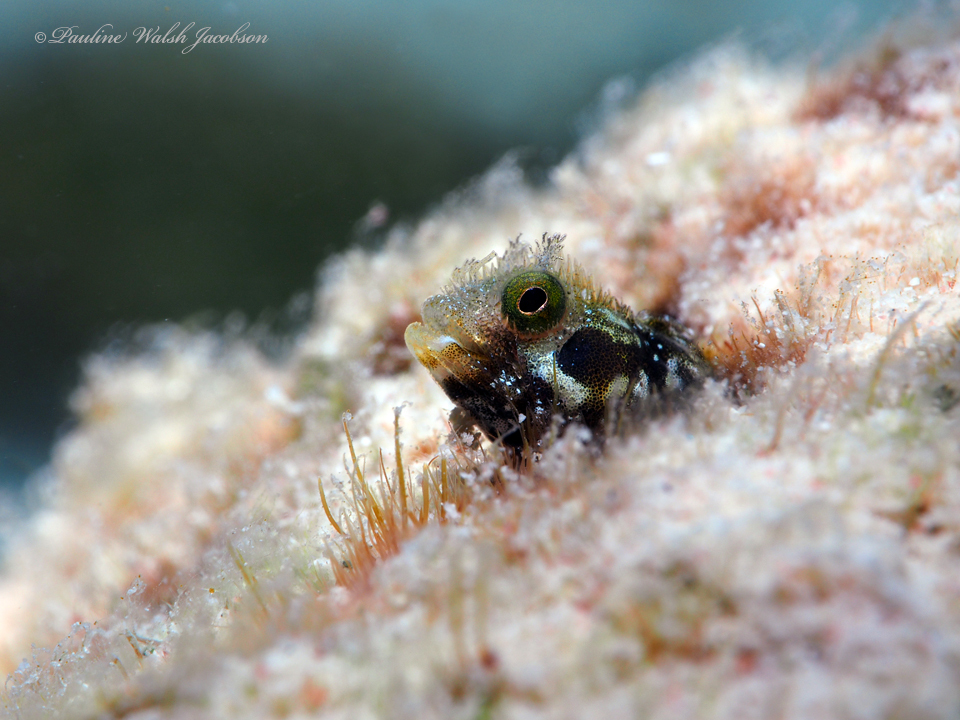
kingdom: Animalia
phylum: Chordata
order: Perciformes
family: Chaenopsidae
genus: Acanthemblemaria
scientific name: Acanthemblemaria spinosa
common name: Spinyhead blenny
